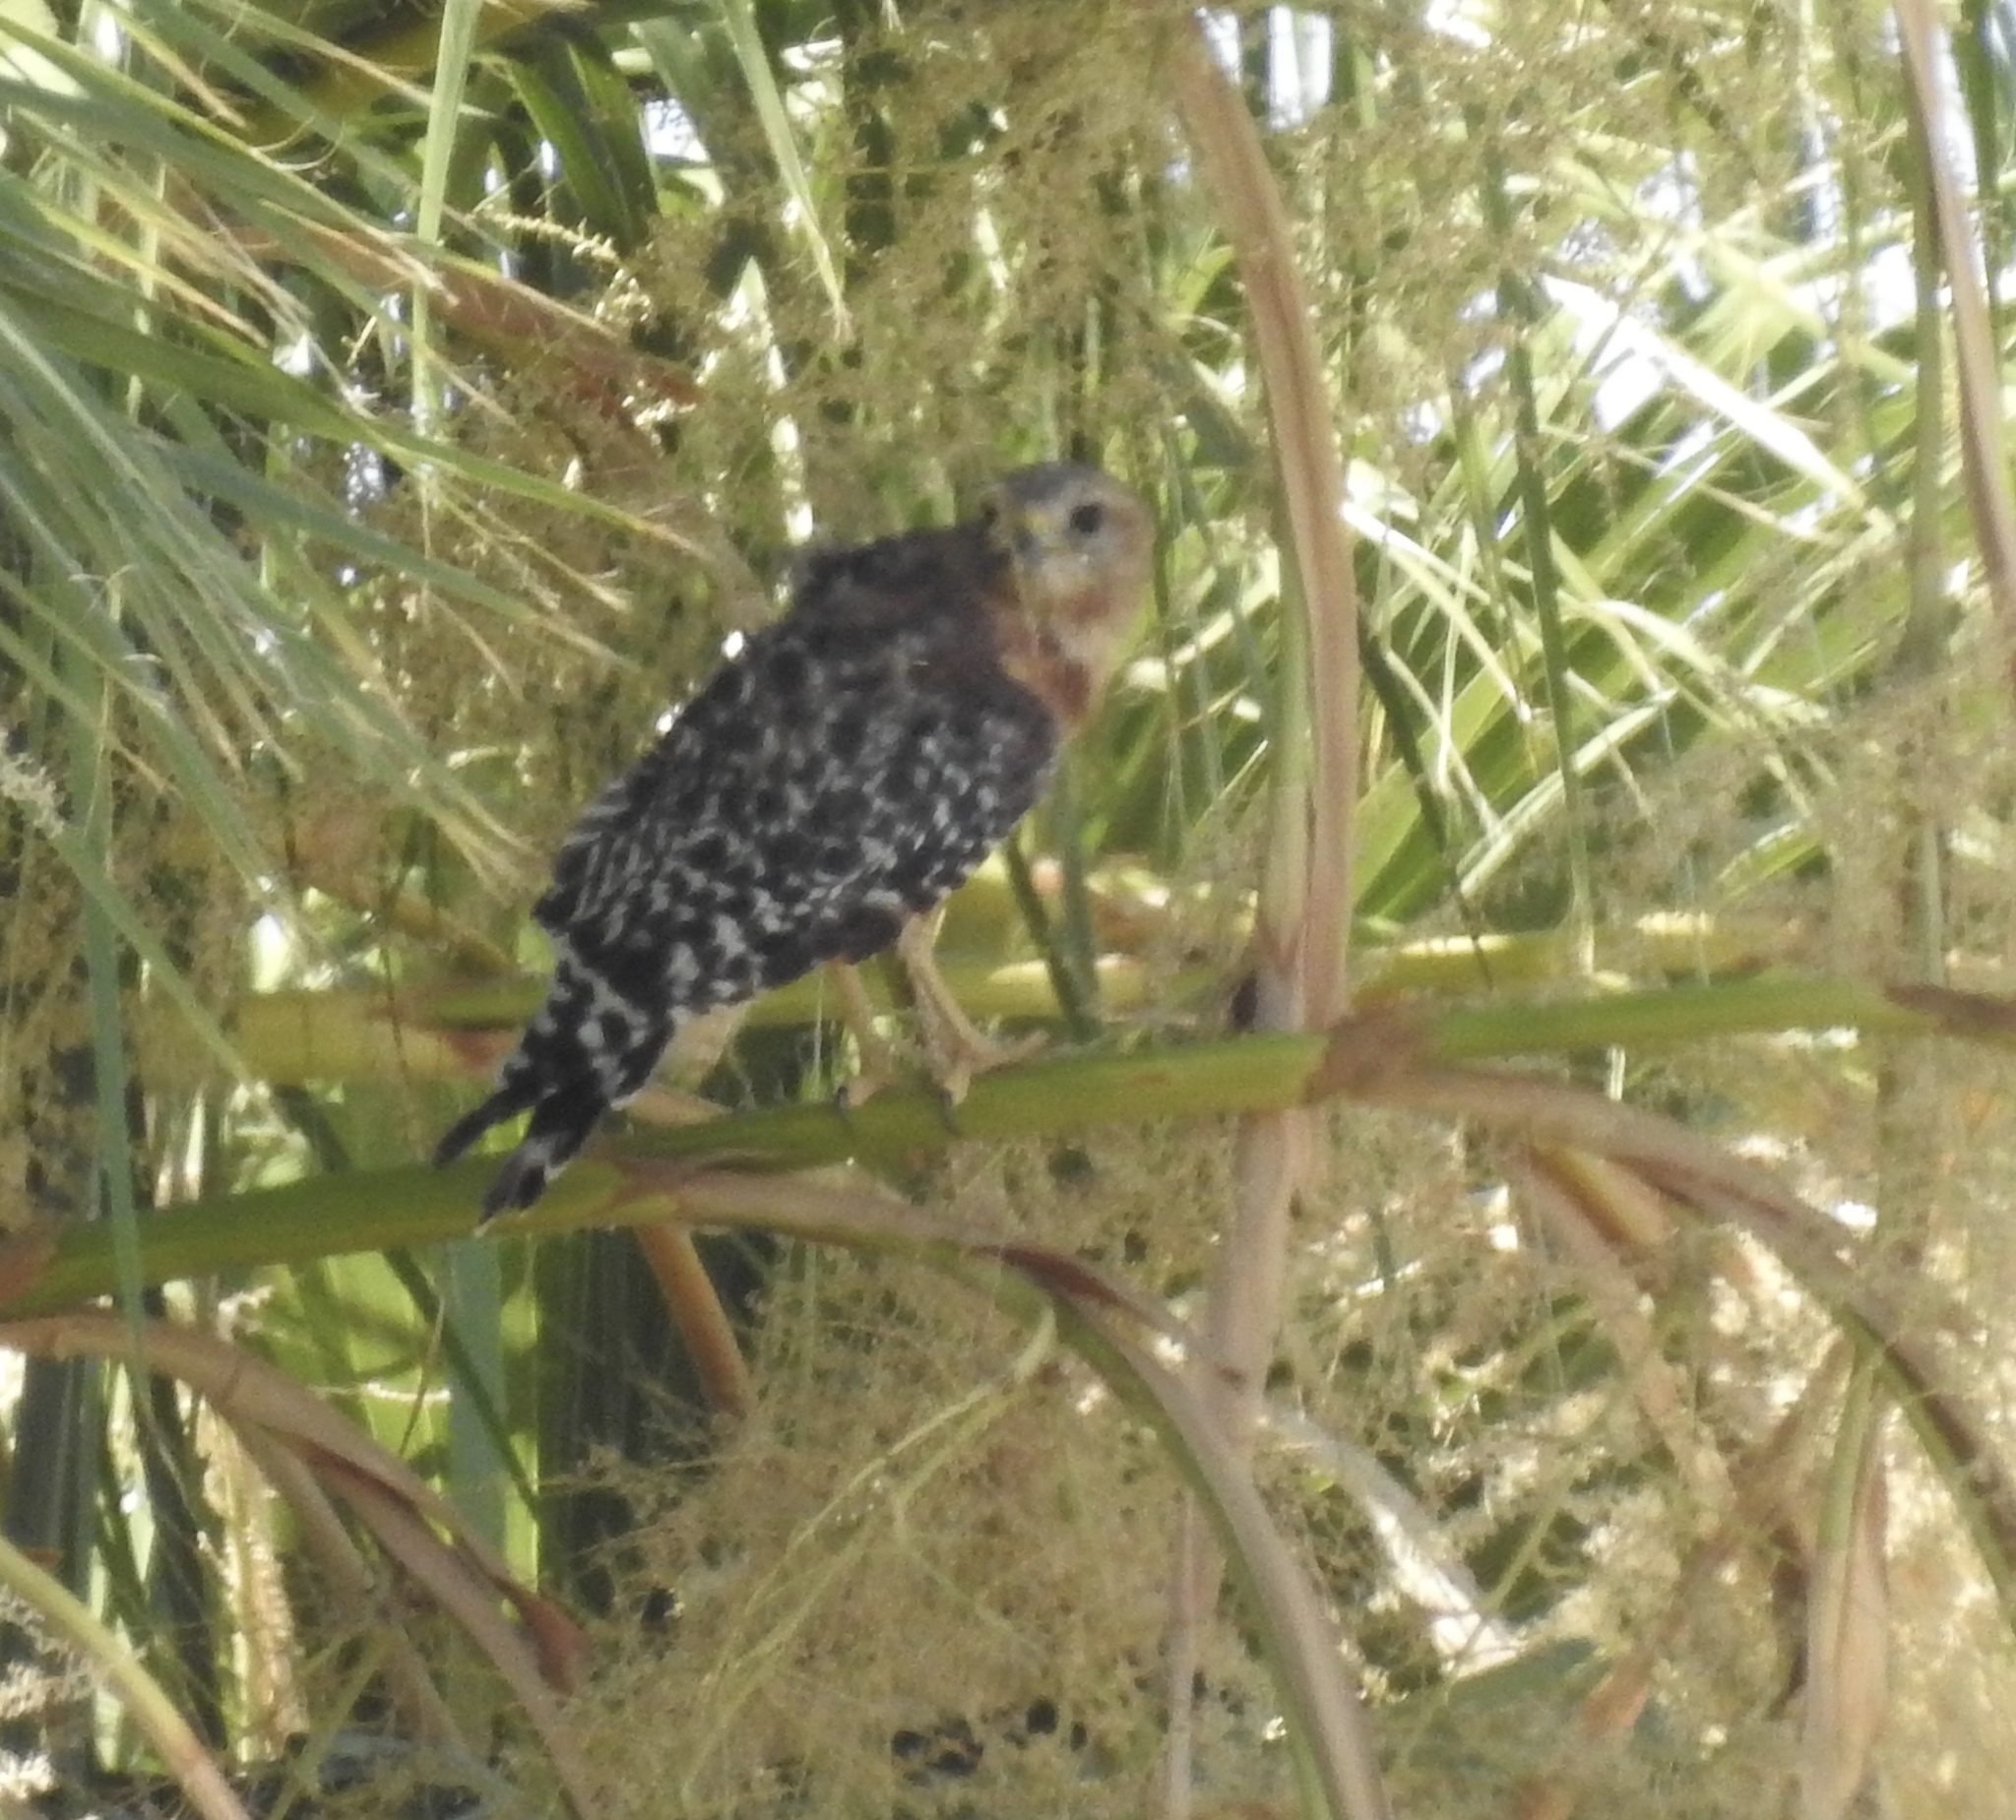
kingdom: Animalia
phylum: Chordata
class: Aves
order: Accipitriformes
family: Accipitridae
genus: Buteo
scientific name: Buteo lineatus
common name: Red-shouldered hawk
